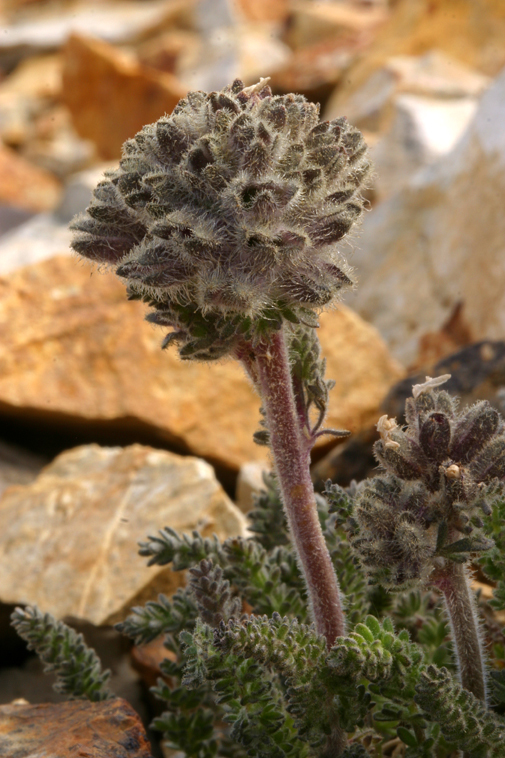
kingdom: Plantae
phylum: Tracheophyta
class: Magnoliopsida
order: Ericales
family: Polemoniaceae
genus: Polemonium
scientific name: Polemonium chartaceum
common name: Mason's sky-pilot
